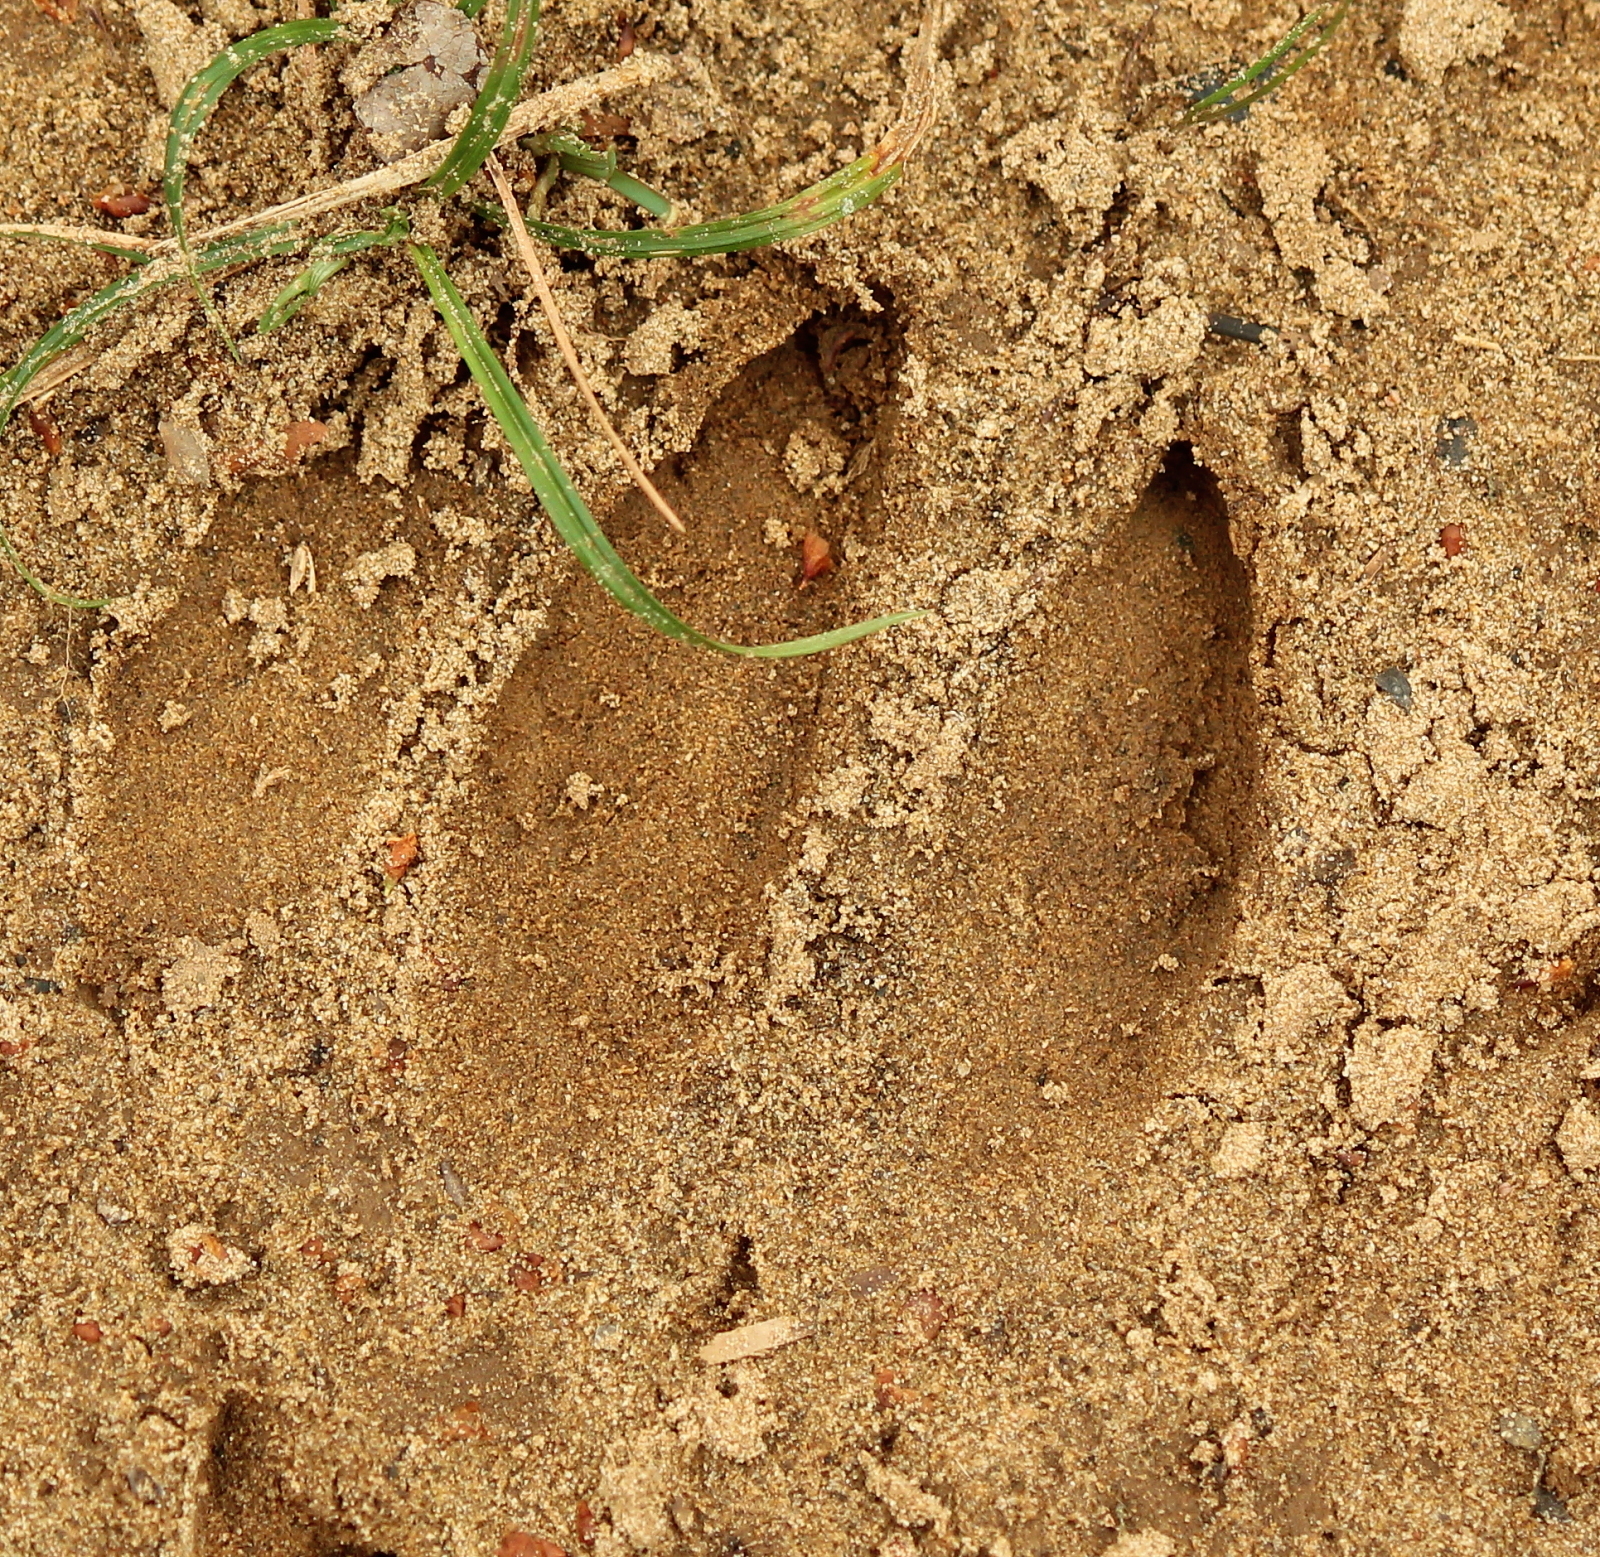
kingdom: Animalia
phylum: Chordata
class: Mammalia
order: Artiodactyla
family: Suidae
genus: Sus
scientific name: Sus scrofa
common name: Wild boar
